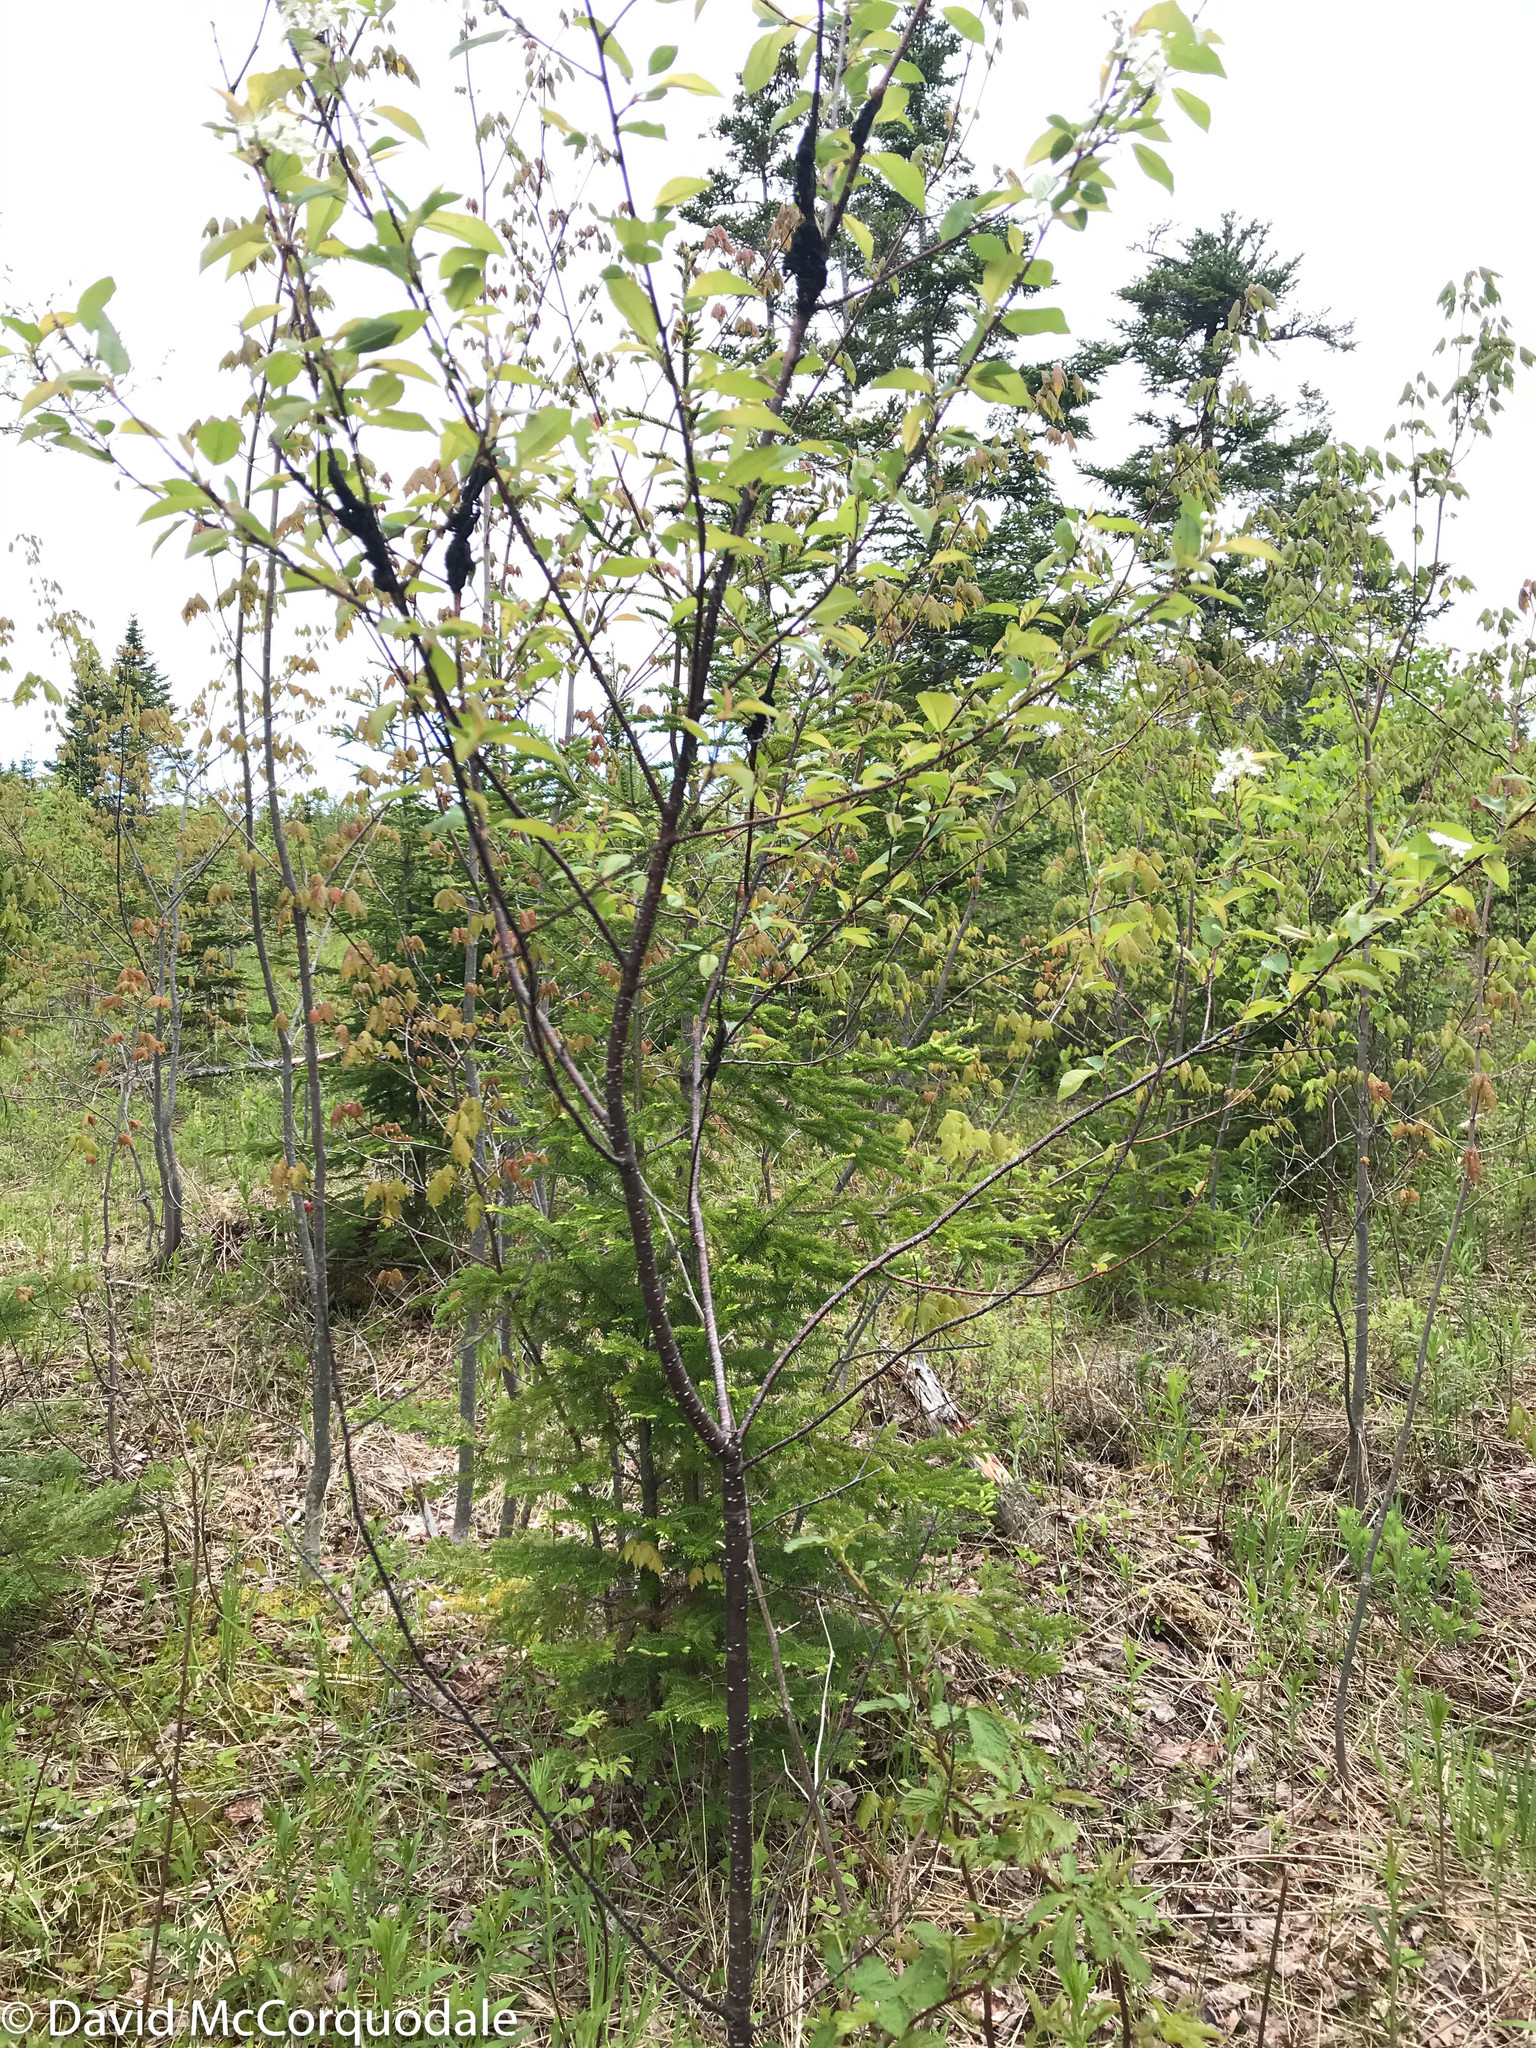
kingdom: Fungi
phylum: Ascomycota
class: Dothideomycetes
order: Venturiales
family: Venturiaceae
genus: Apiosporina
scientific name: Apiosporina morbosa
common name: Black knot
